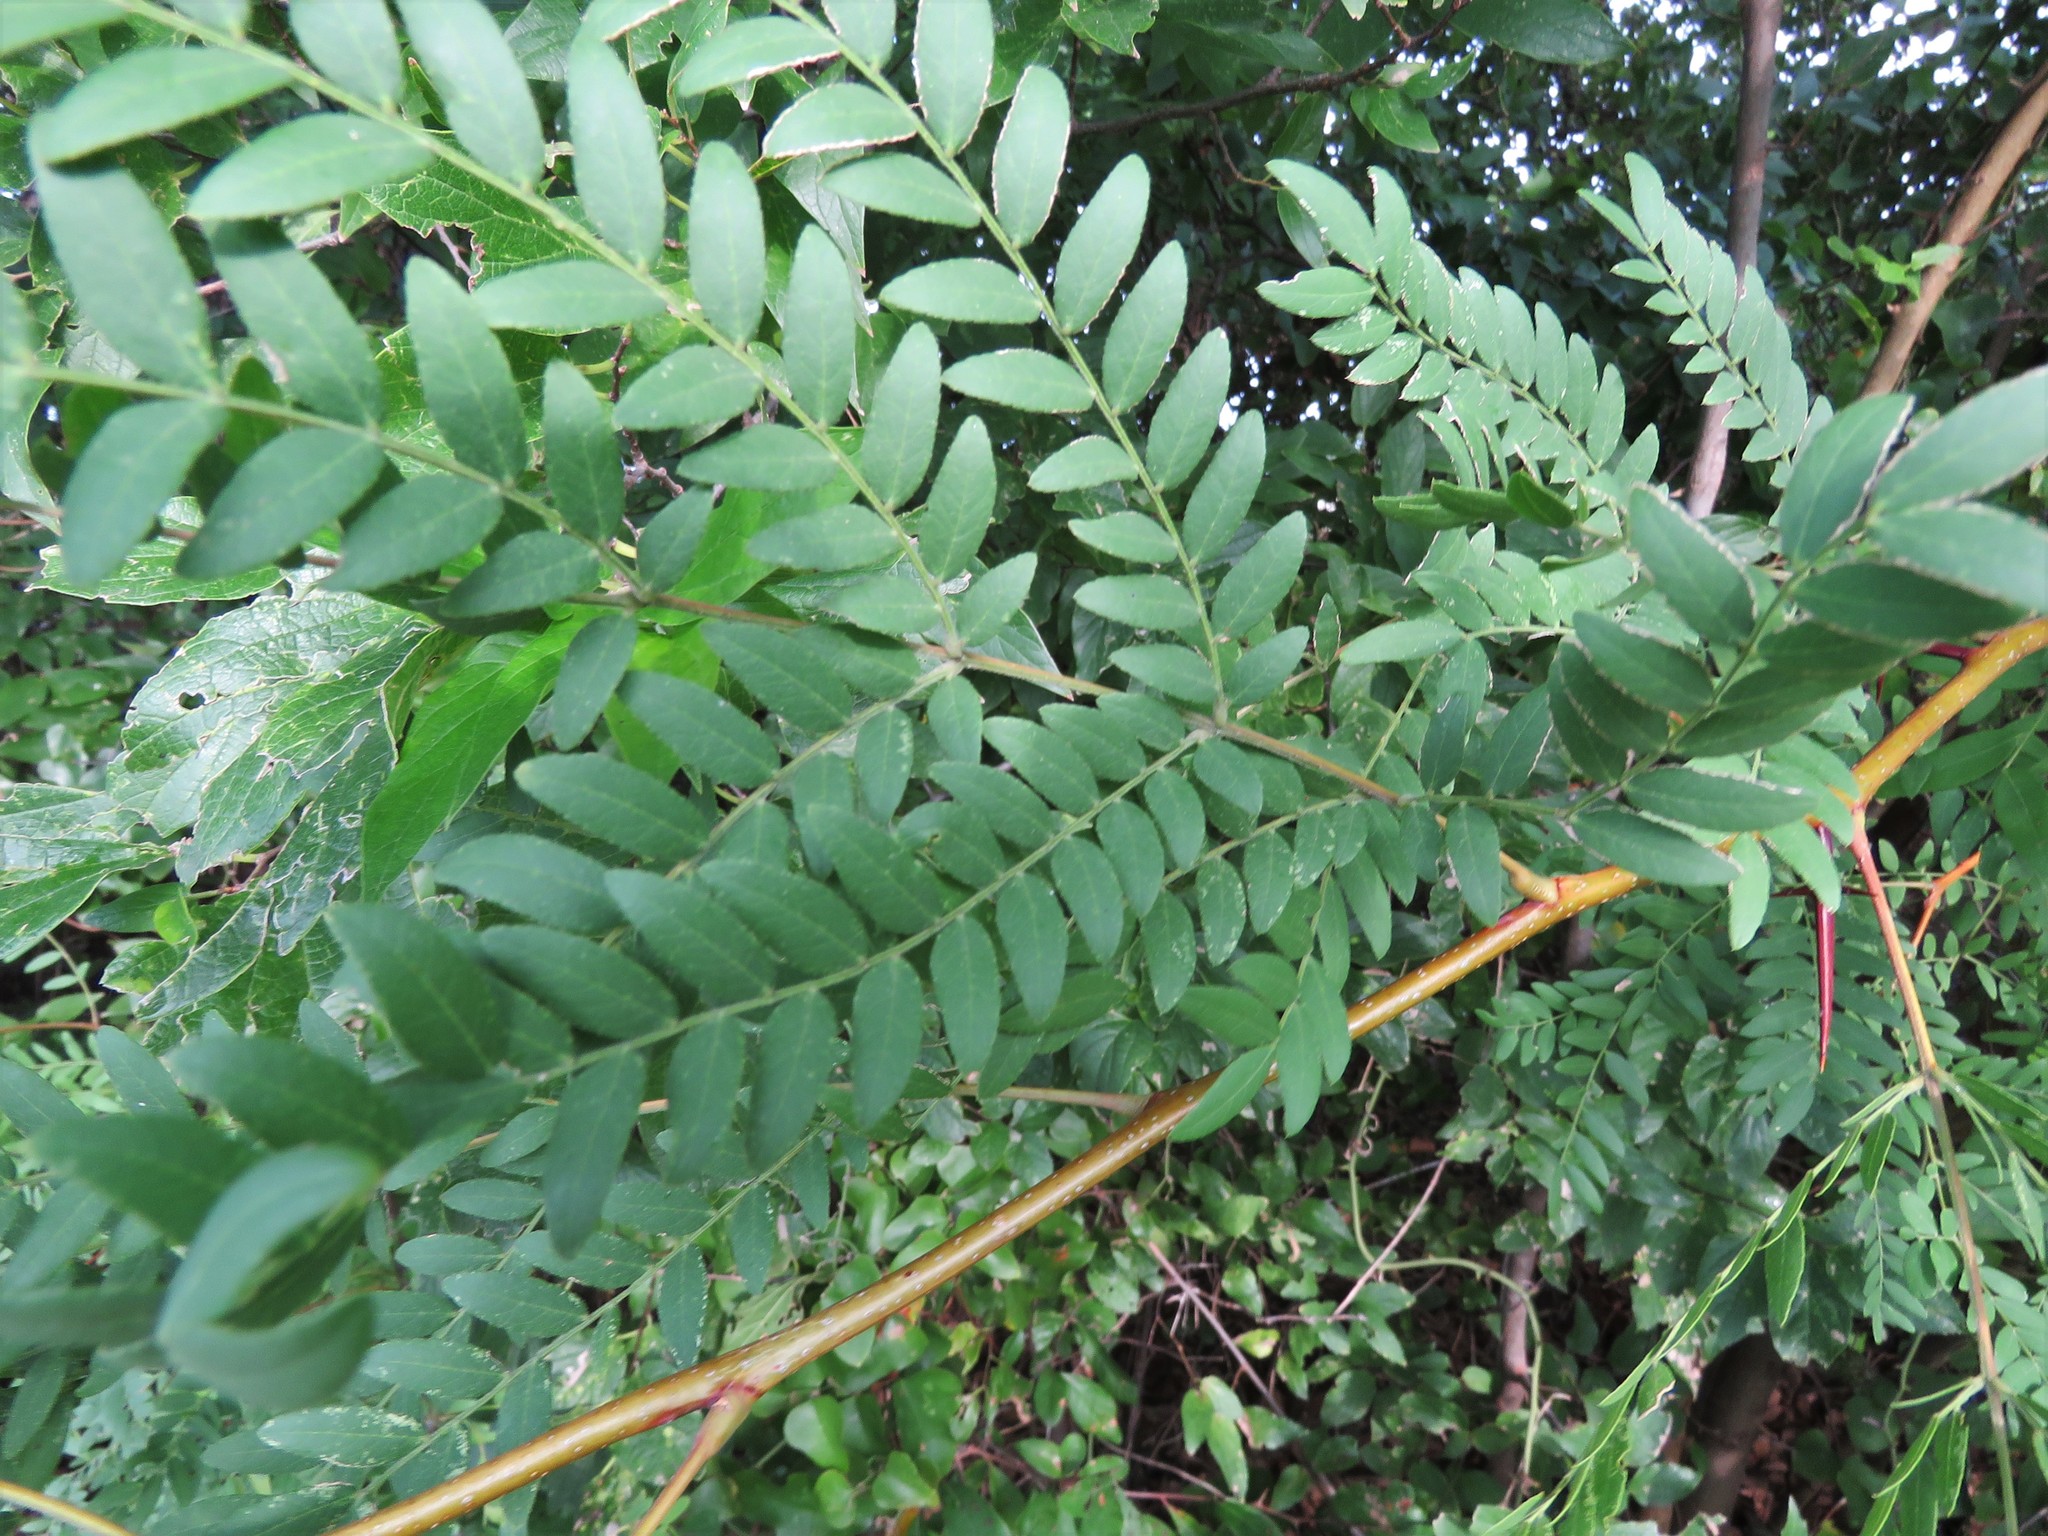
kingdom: Plantae
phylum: Tracheophyta
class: Magnoliopsida
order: Fabales
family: Fabaceae
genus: Gleditsia
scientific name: Gleditsia triacanthos
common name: Common honeylocust
